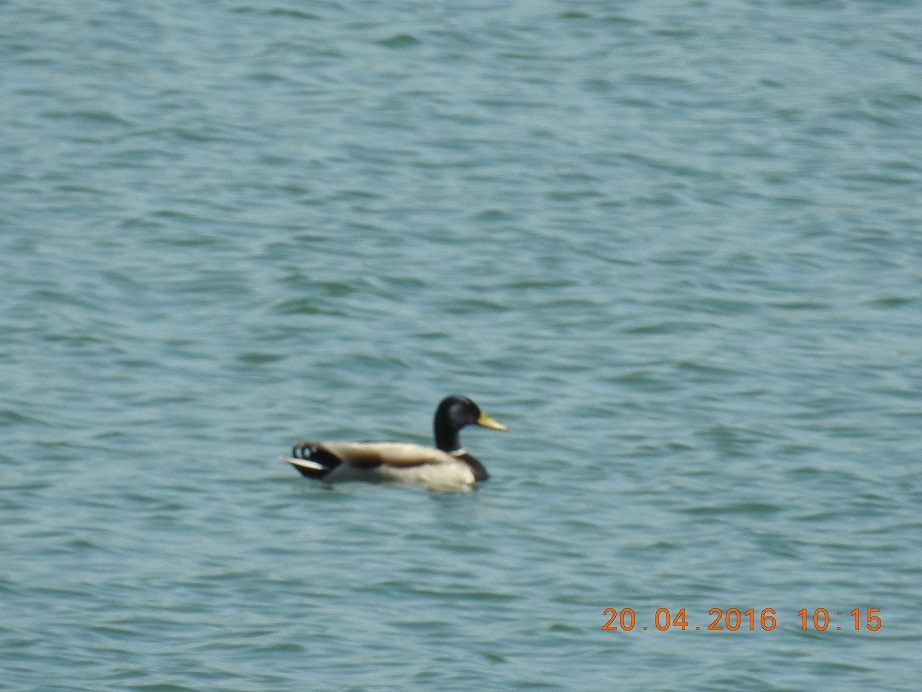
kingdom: Animalia
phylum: Chordata
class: Aves
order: Anseriformes
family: Anatidae
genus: Anas
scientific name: Anas platyrhynchos
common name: Mallard
